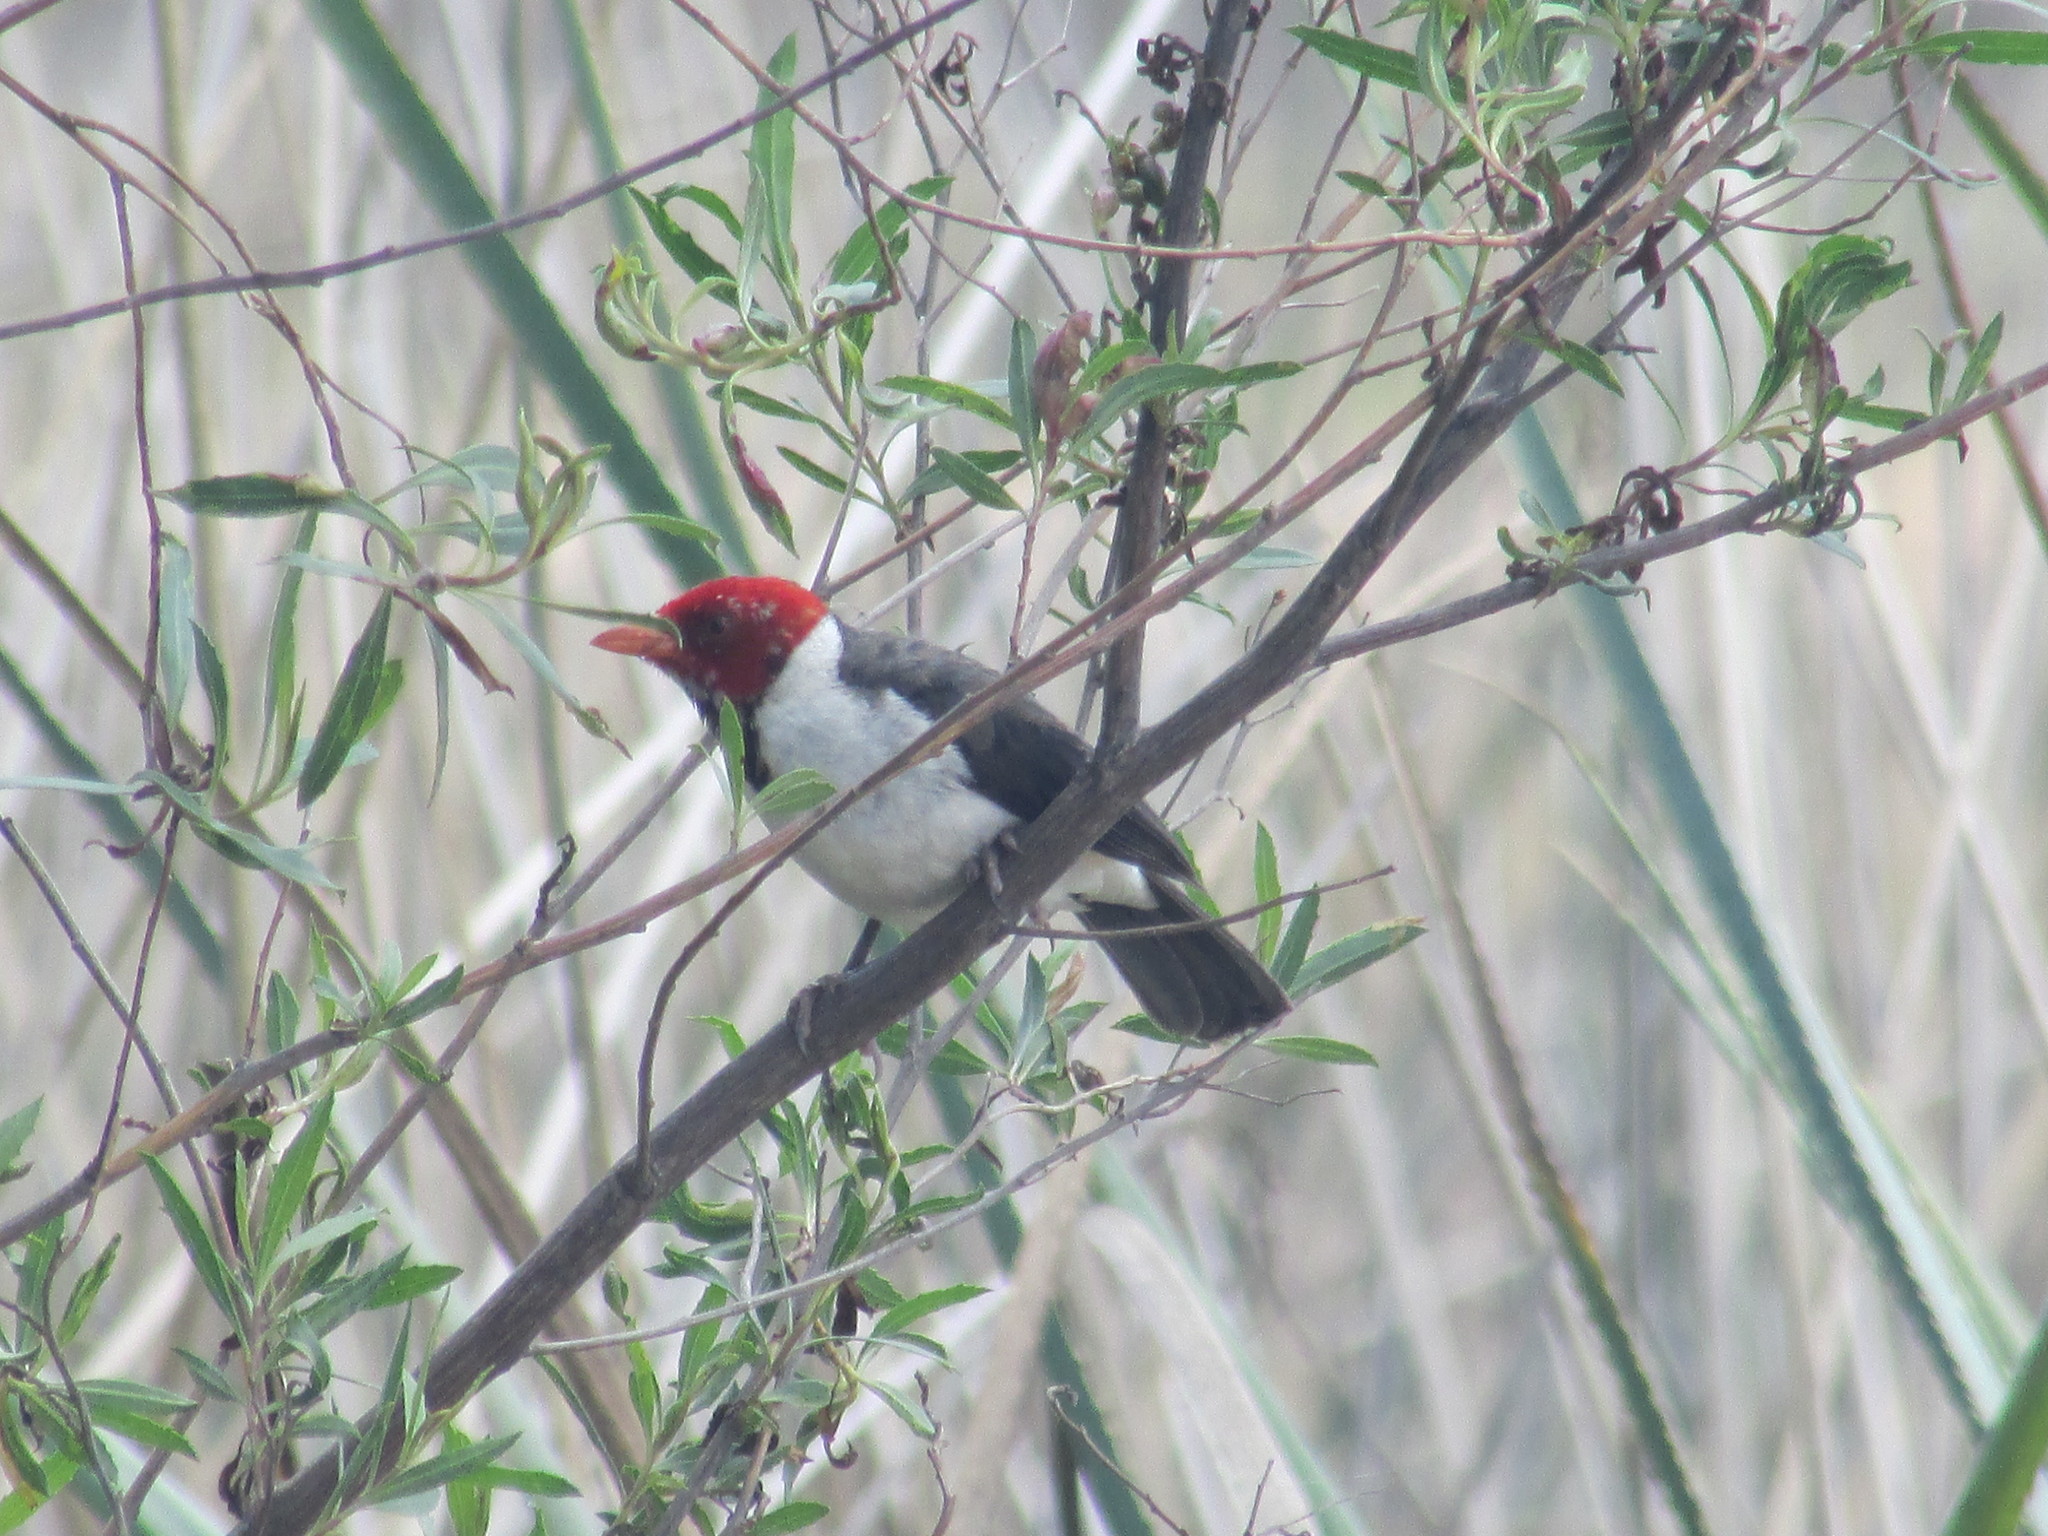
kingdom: Animalia
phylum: Chordata
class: Aves
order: Passeriformes
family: Thraupidae
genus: Paroaria
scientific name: Paroaria capitata
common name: Yellow-billed cardinal
